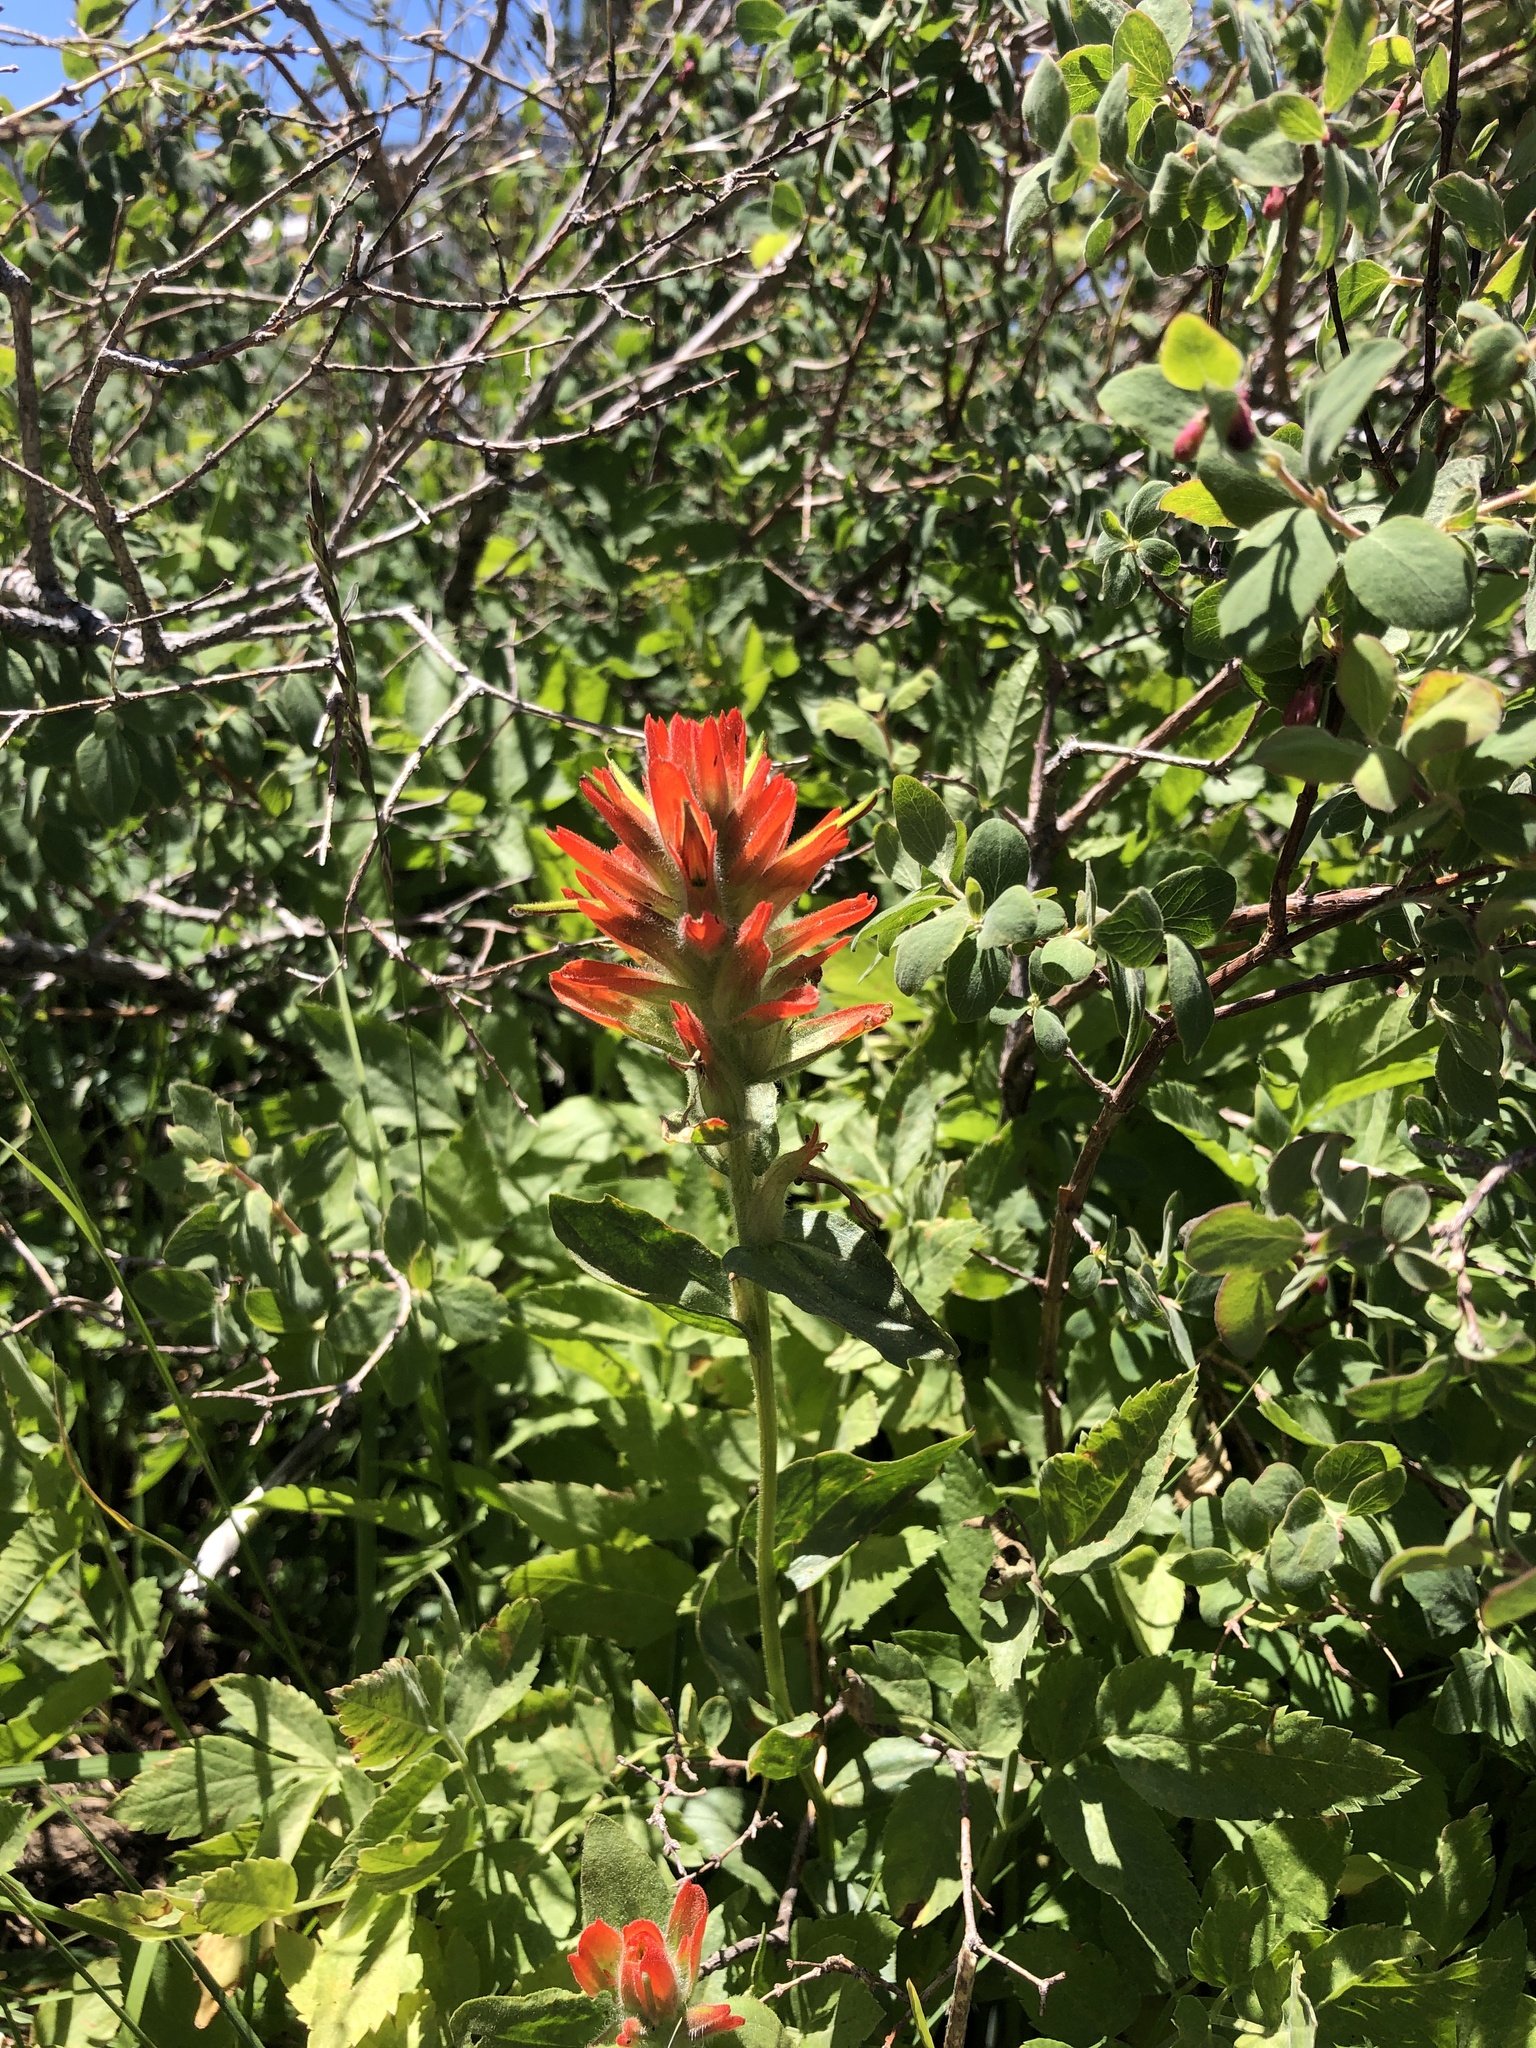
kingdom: Plantae
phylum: Tracheophyta
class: Magnoliopsida
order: Lamiales
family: Orobanchaceae
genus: Castilleja
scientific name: Castilleja miniata
